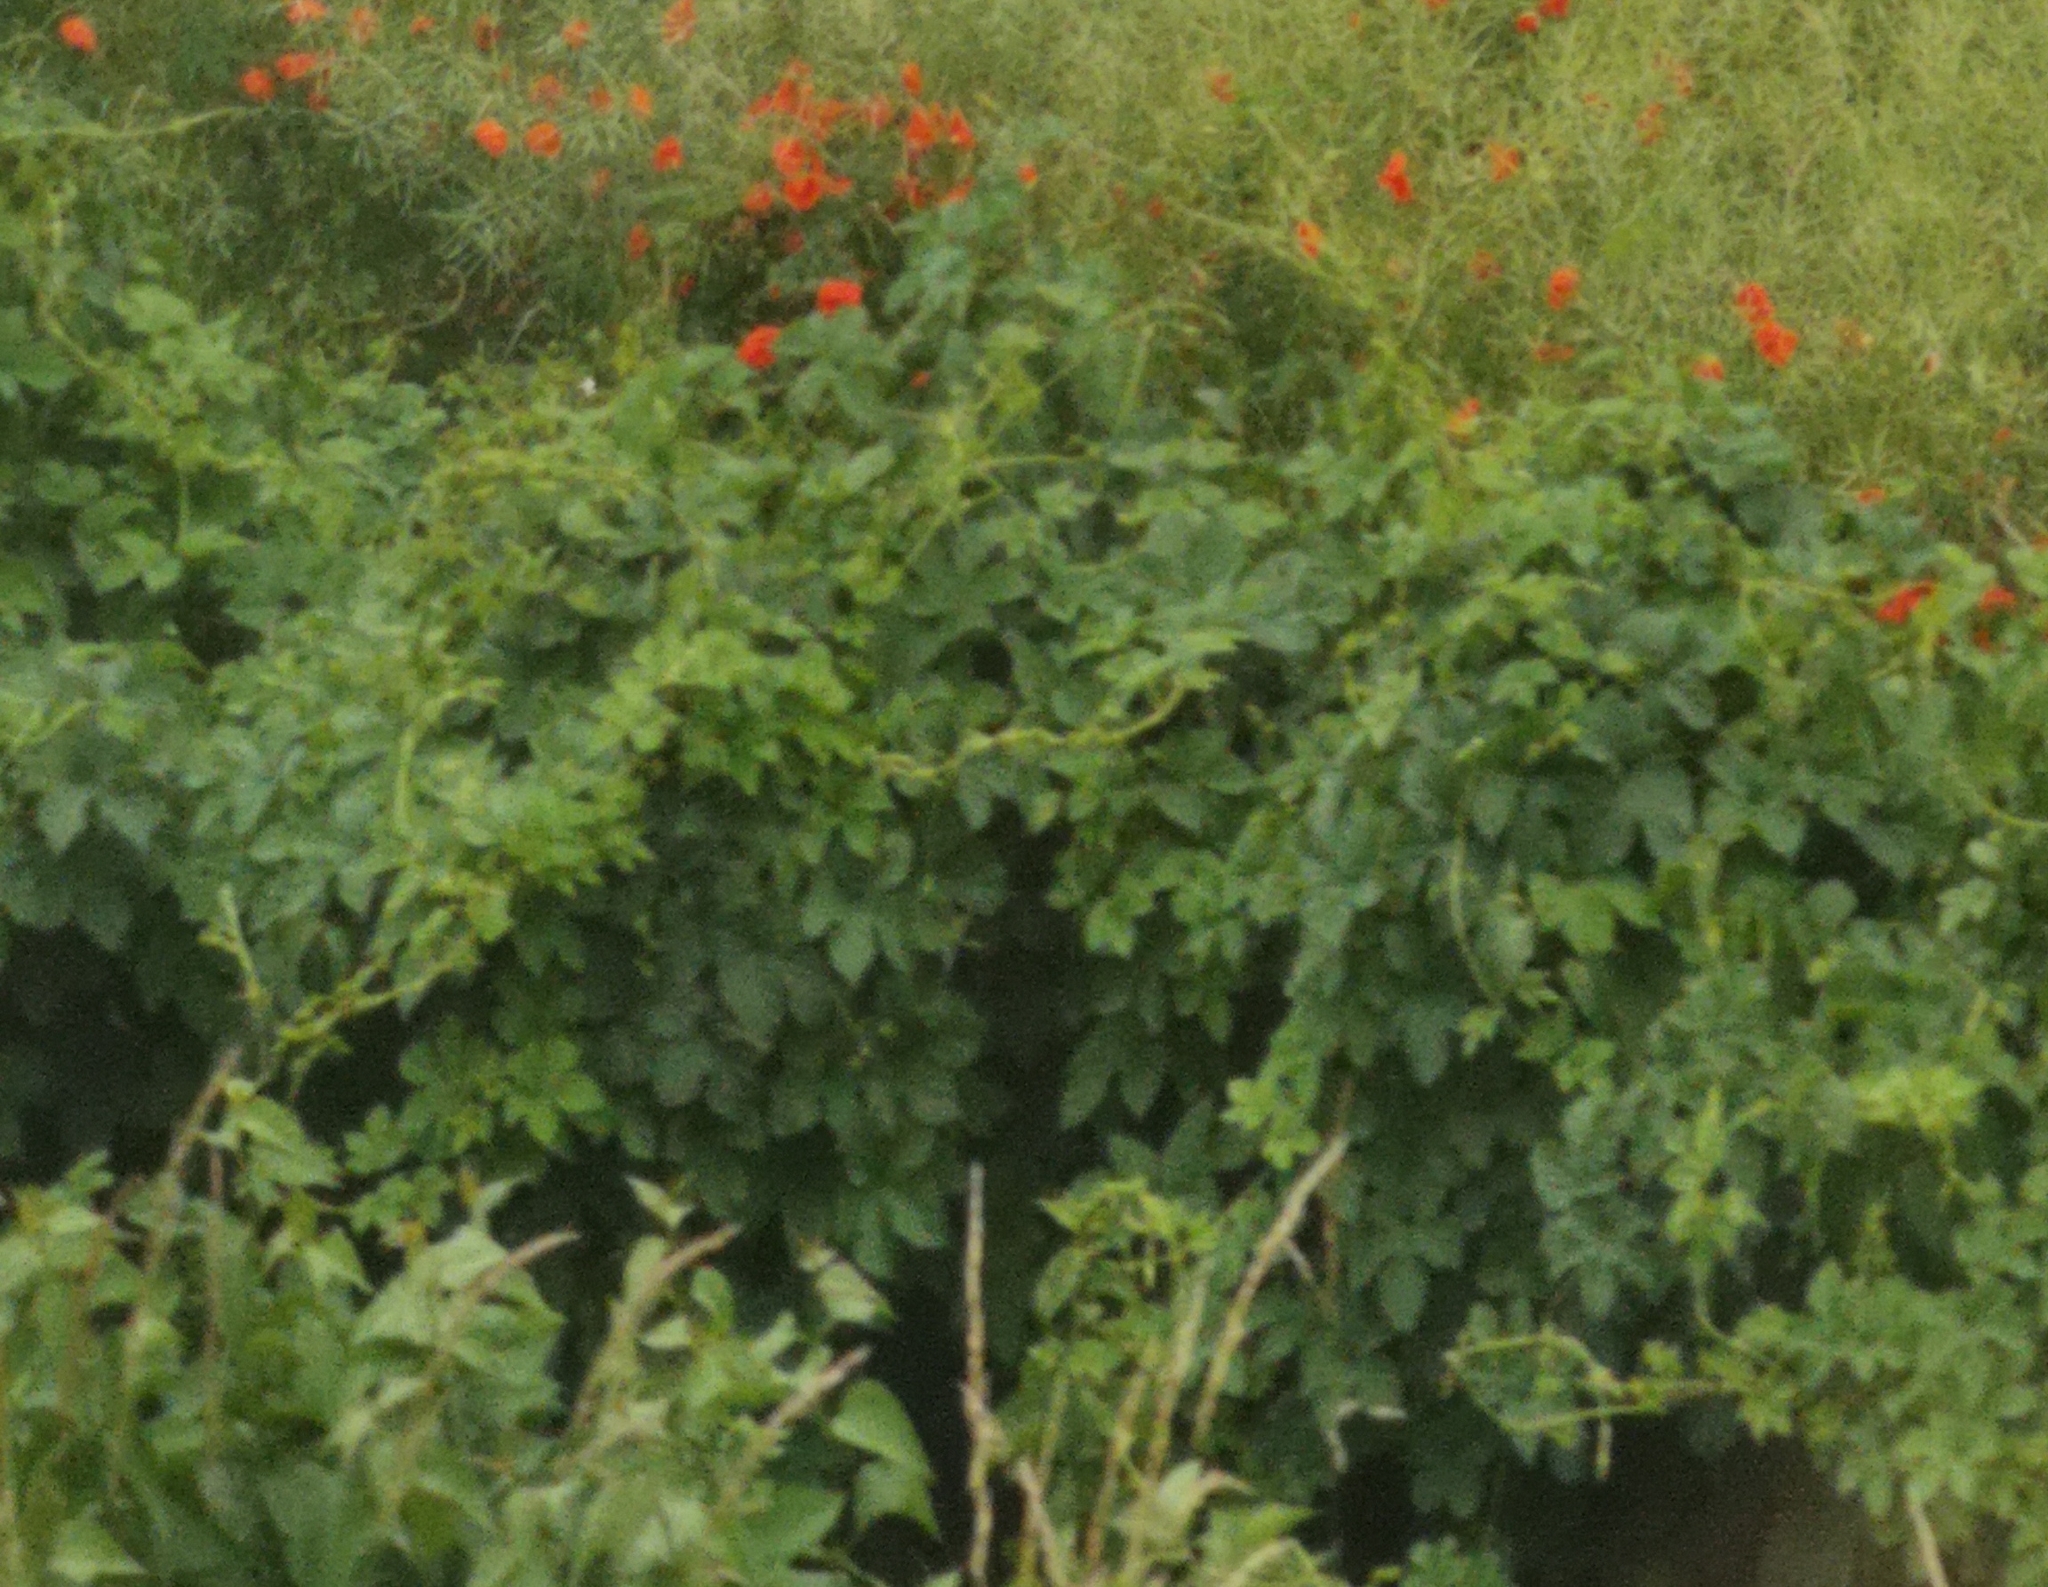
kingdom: Plantae
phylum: Tracheophyta
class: Magnoliopsida
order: Rosales
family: Cannabaceae
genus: Humulus
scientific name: Humulus lupulus
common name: Hop
